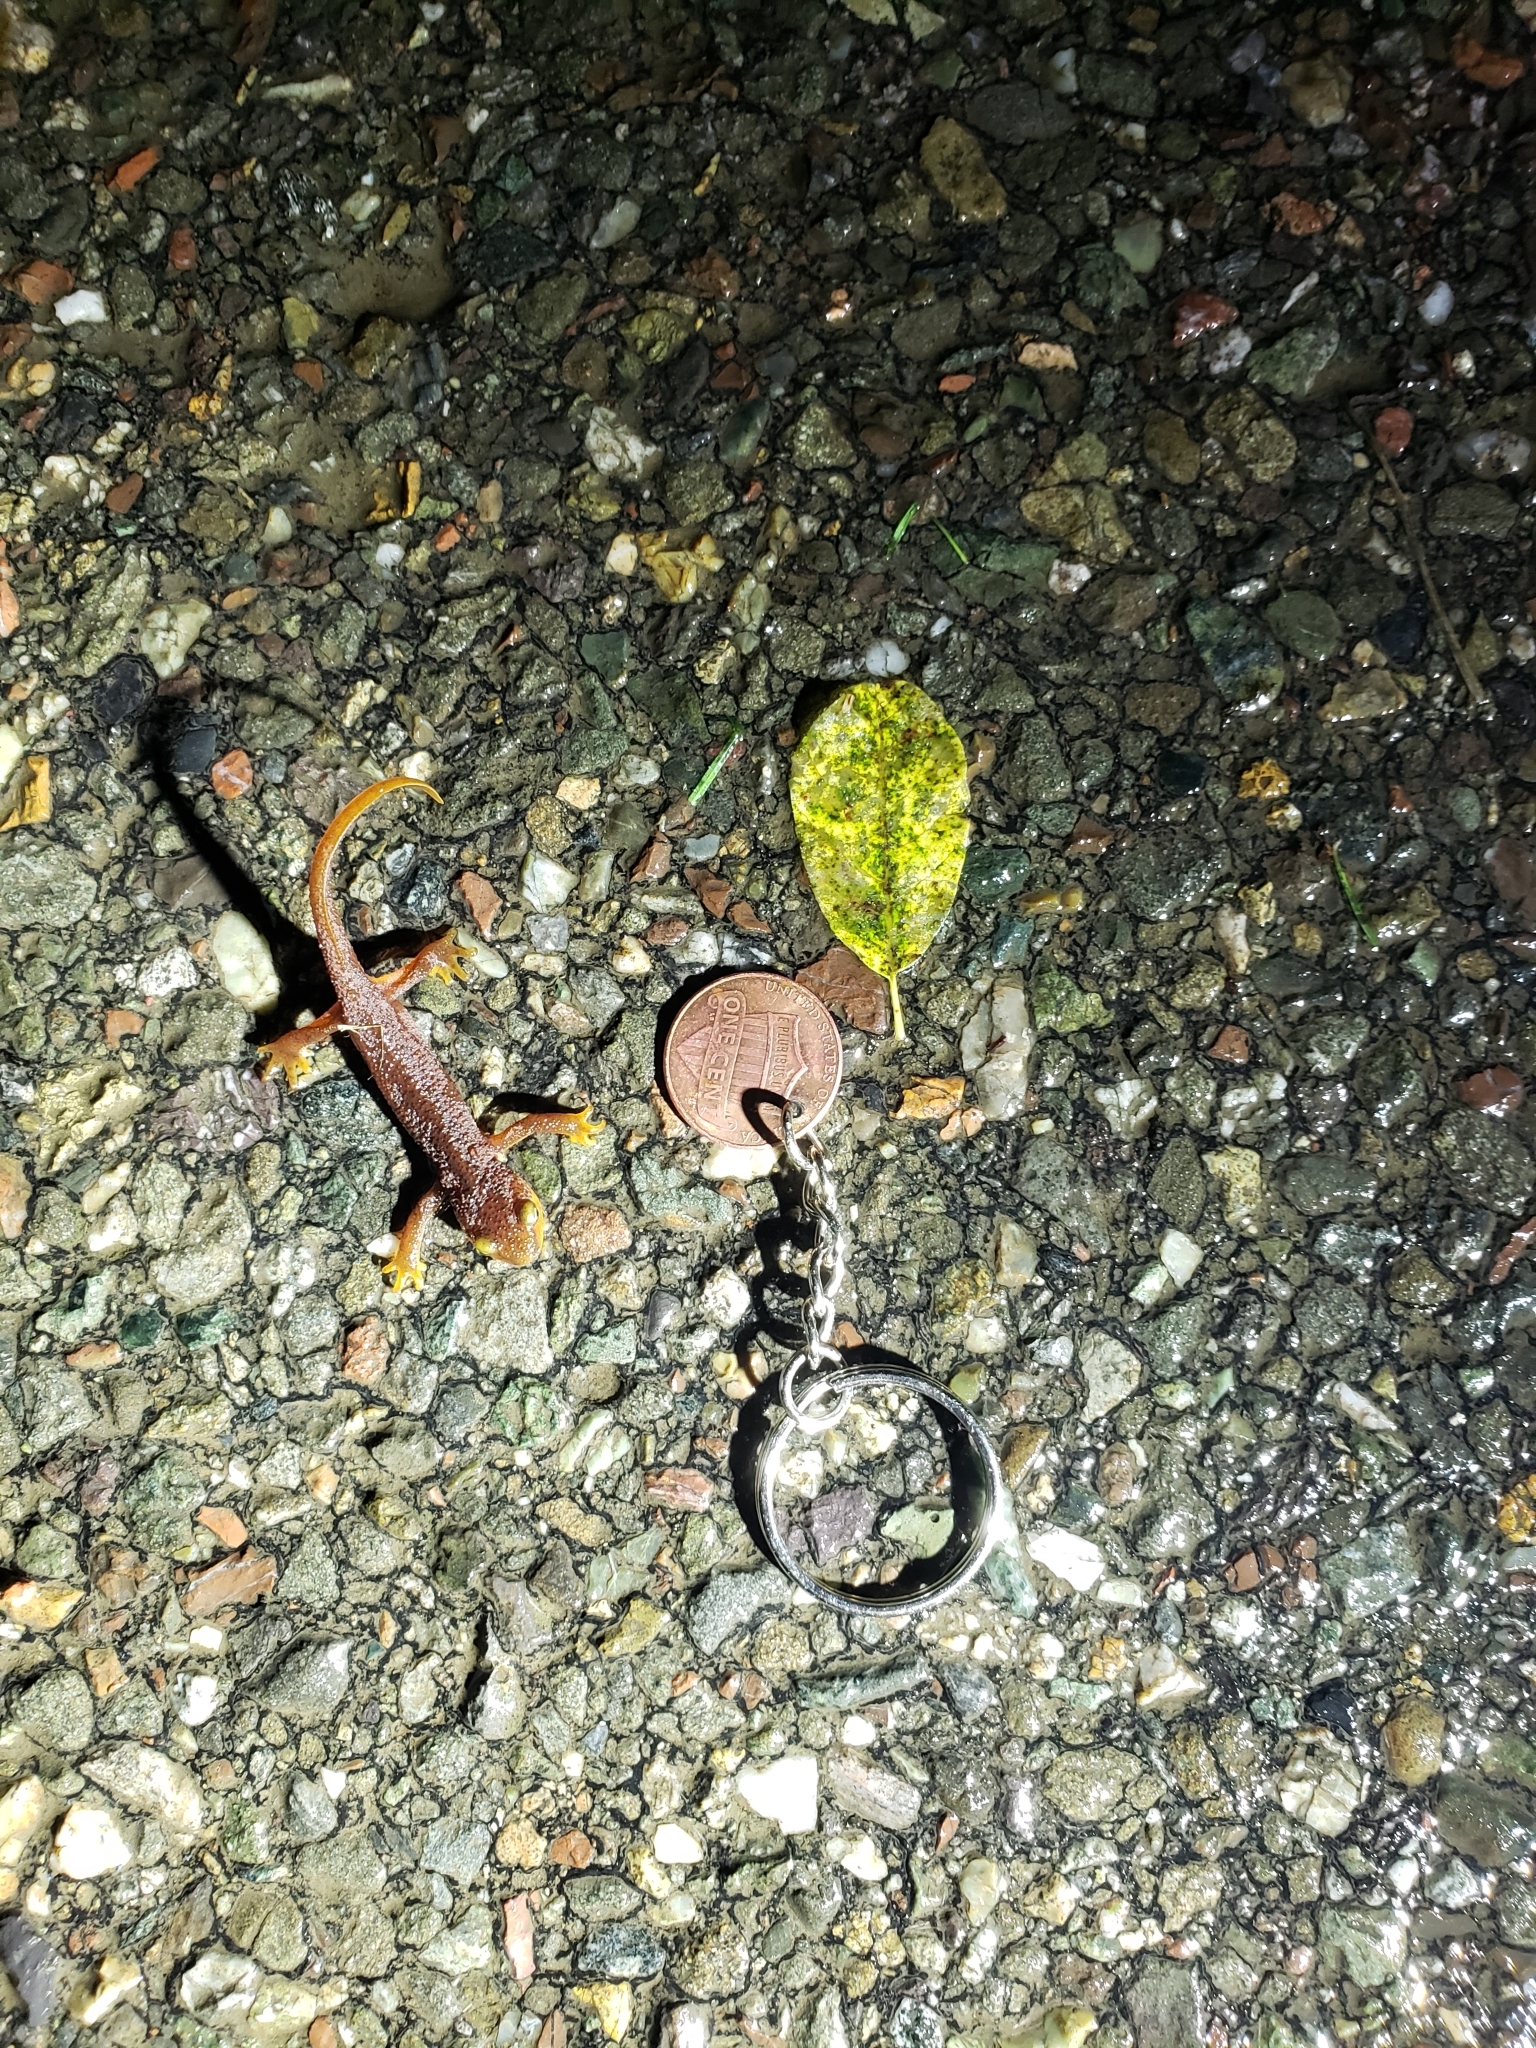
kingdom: Animalia
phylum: Chordata
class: Amphibia
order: Caudata
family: Salamandridae
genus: Taricha
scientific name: Taricha torosa
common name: California newt
